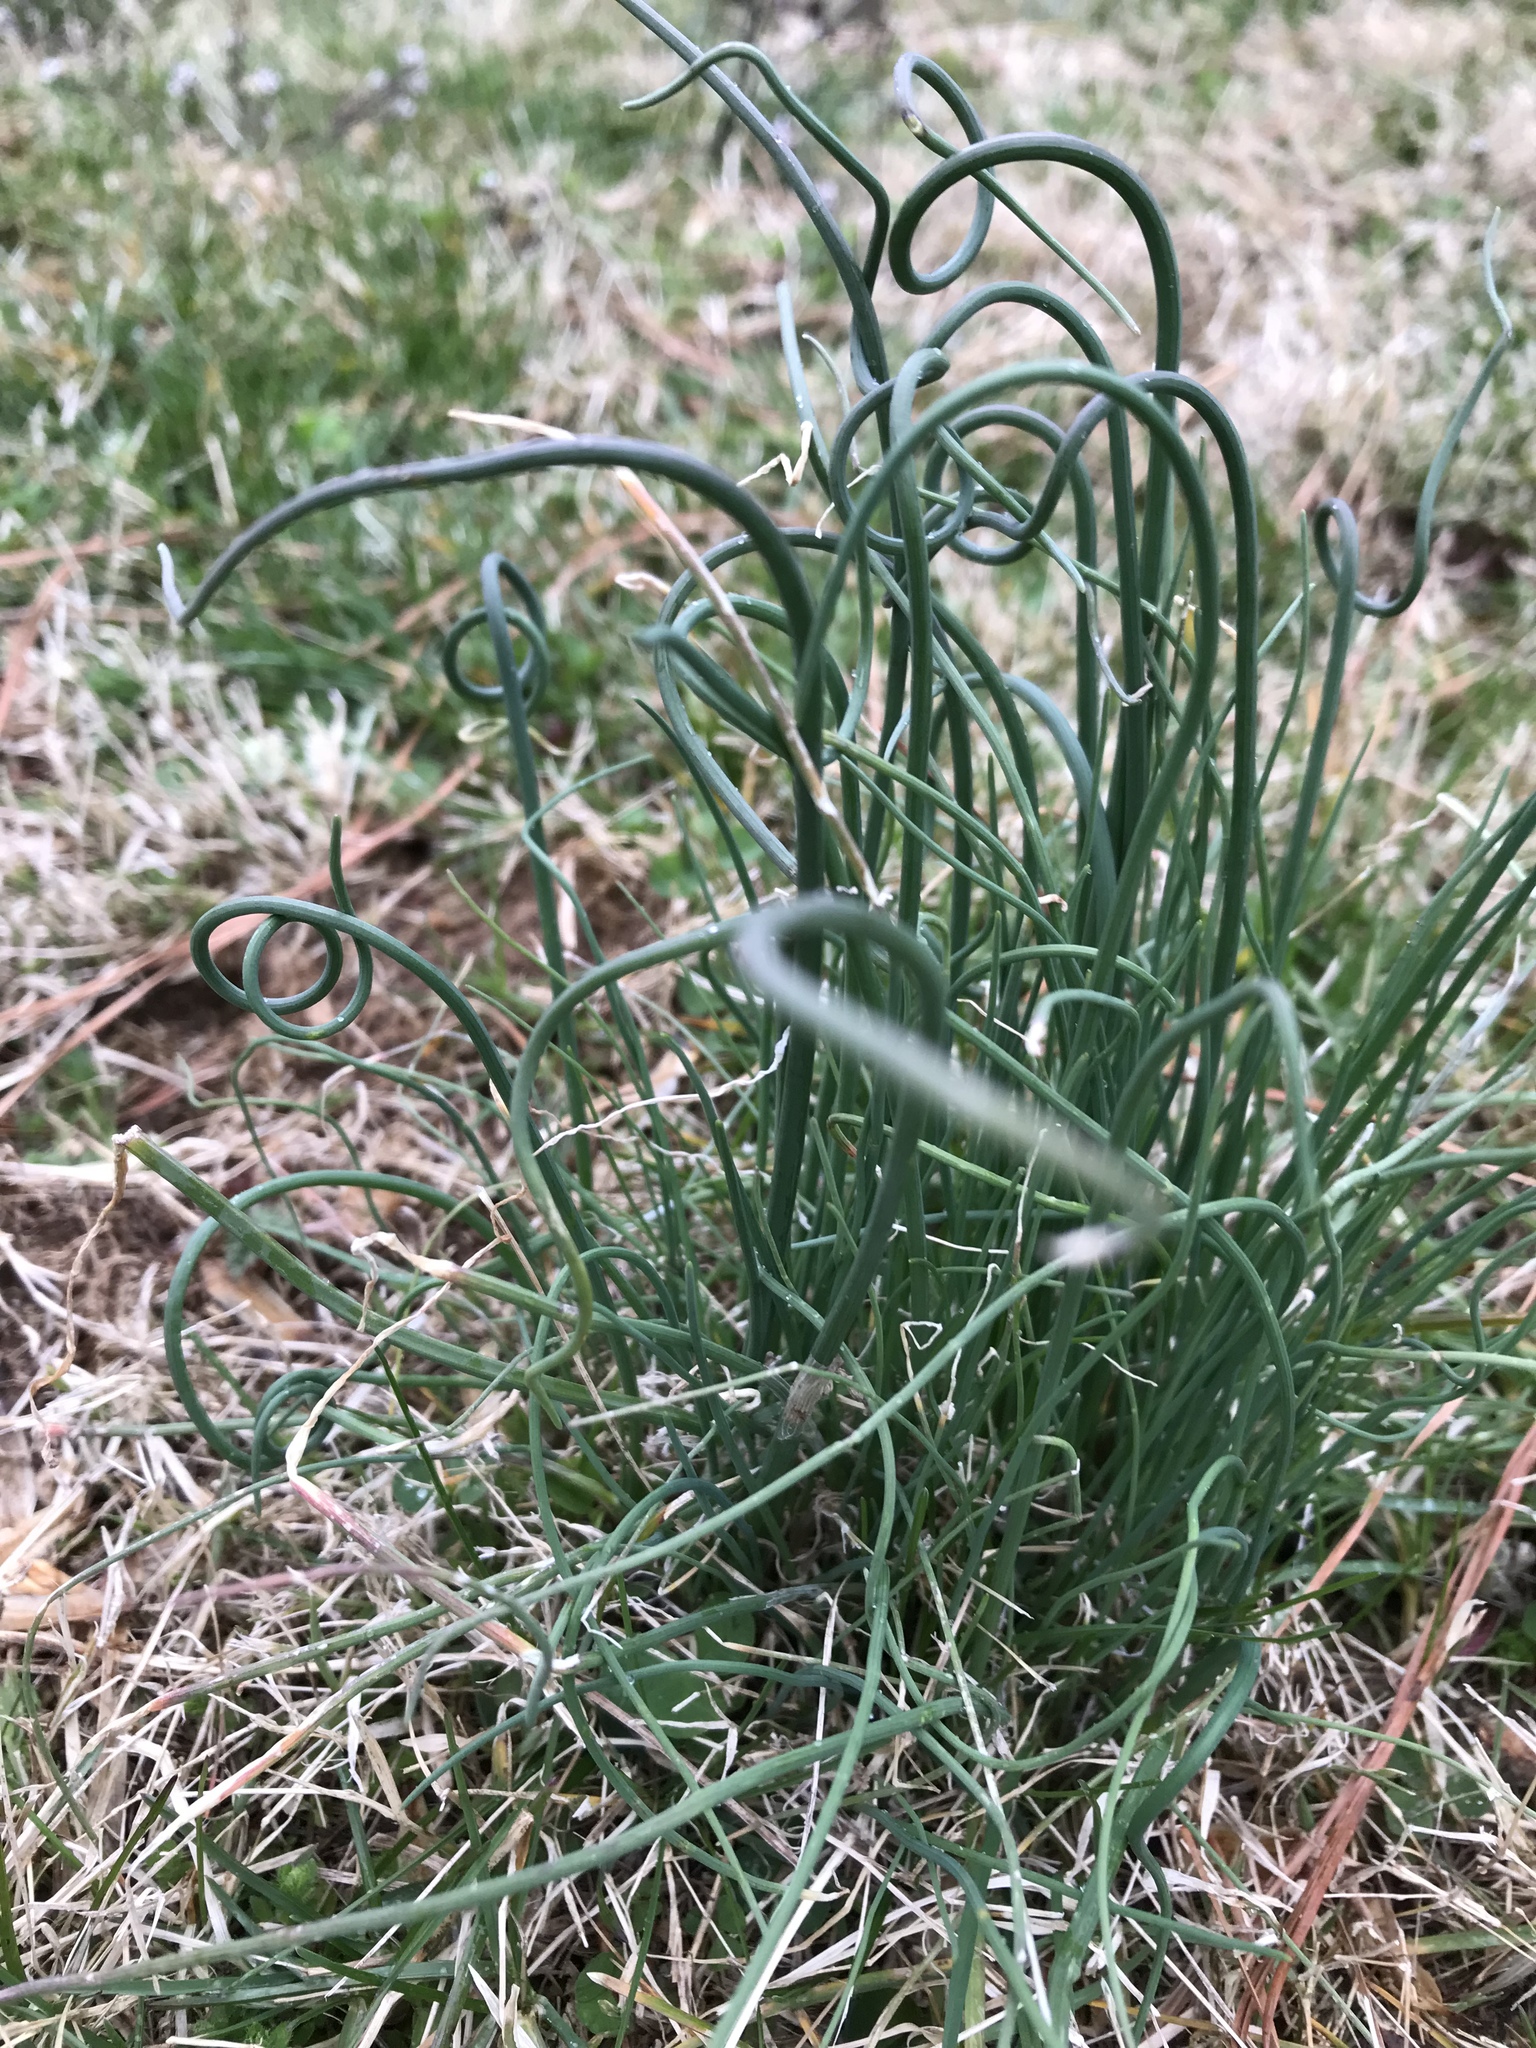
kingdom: Plantae
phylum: Tracheophyta
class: Liliopsida
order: Asparagales
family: Amaryllidaceae
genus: Allium
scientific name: Allium vineale
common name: Crow garlic
